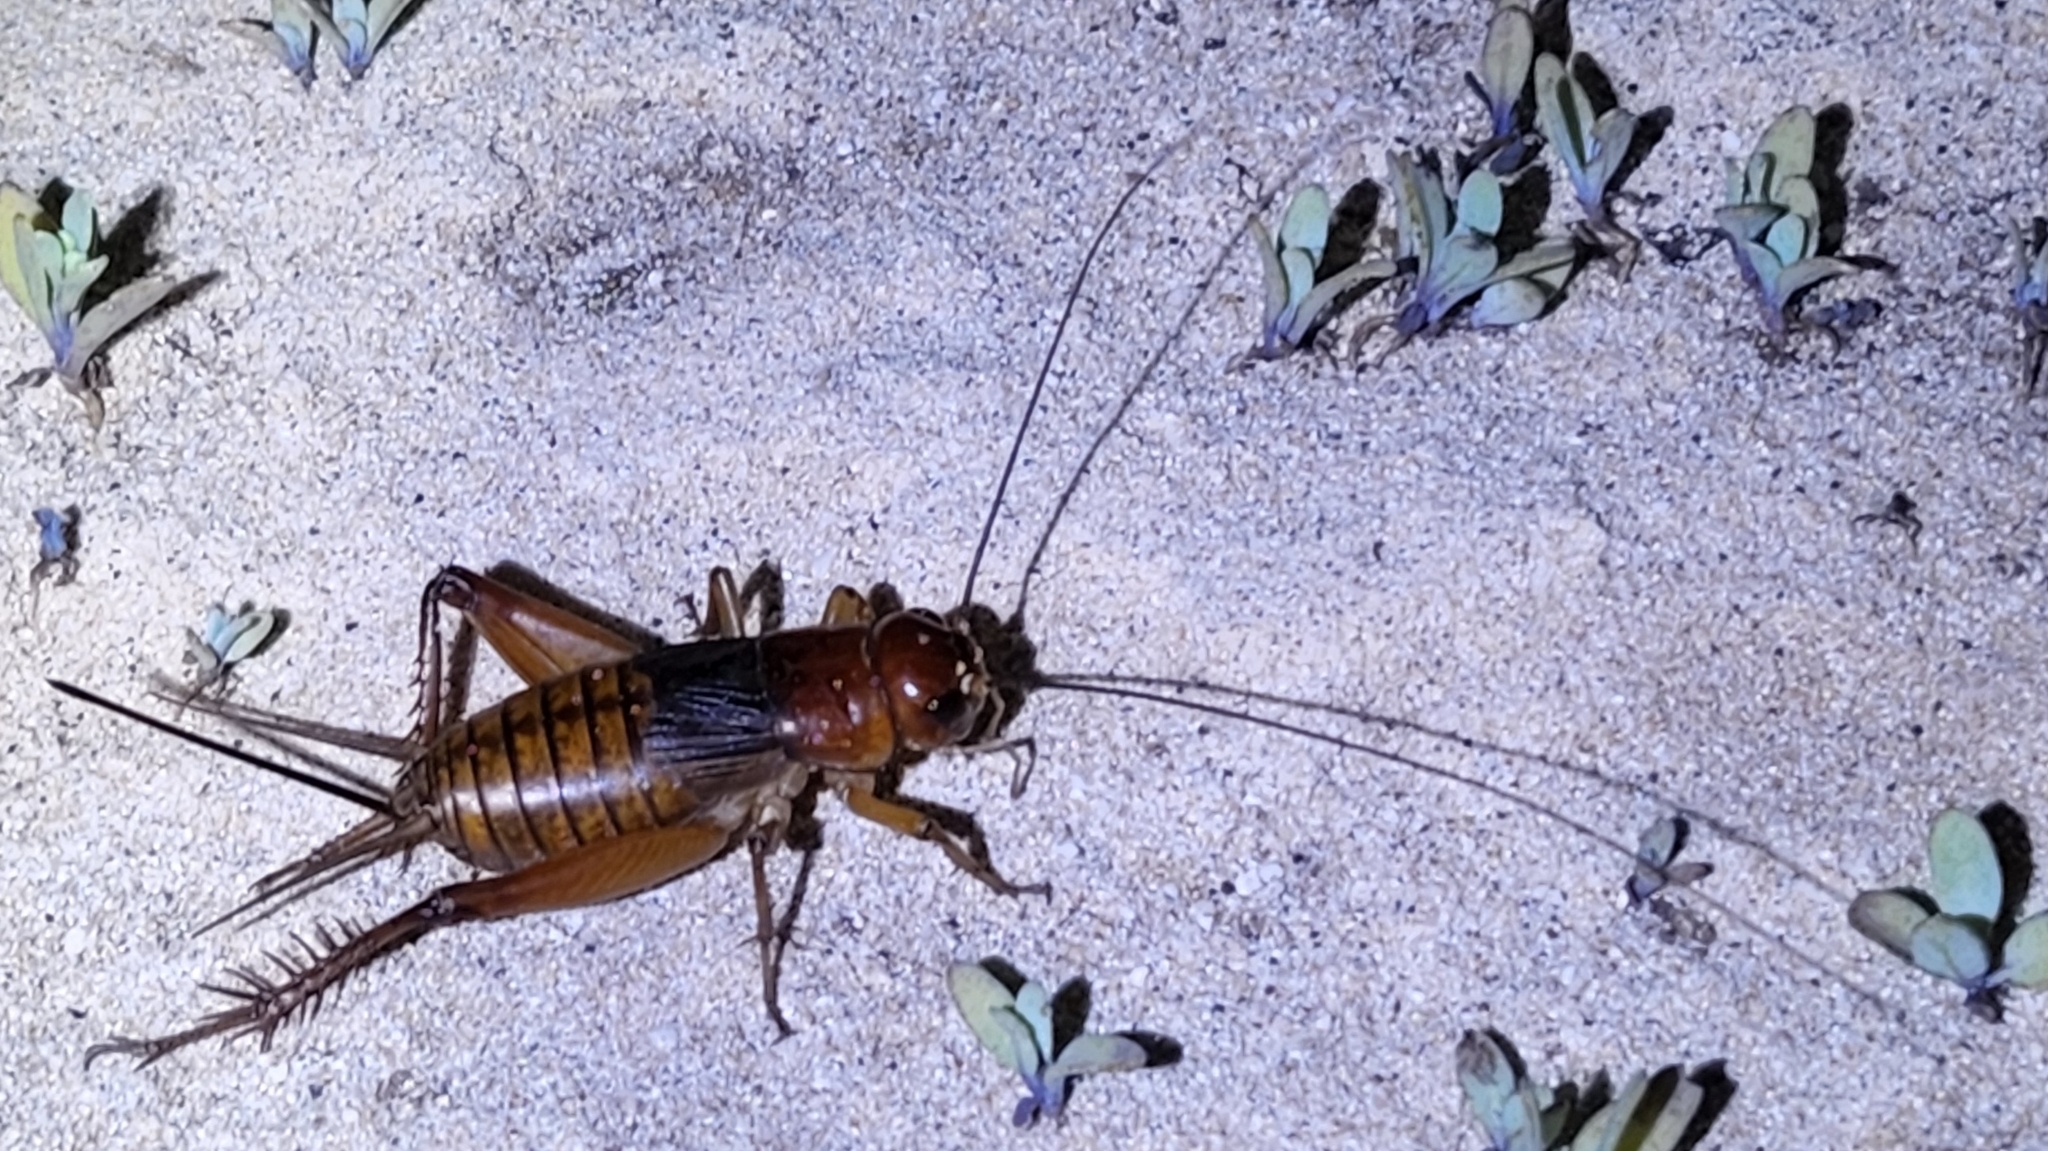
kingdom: Animalia
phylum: Arthropoda
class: Insecta
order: Orthoptera
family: Gryllidae
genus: Gryllus
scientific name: Gryllus alexanderi
